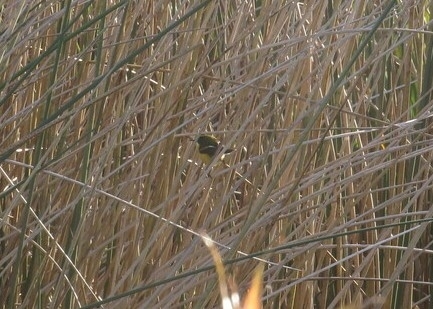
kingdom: Animalia
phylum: Chordata
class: Aves
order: Passeriformes
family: Tyrannidae
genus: Tachuris
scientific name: Tachuris rubrigastra
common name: Many-colored rush tyrant
